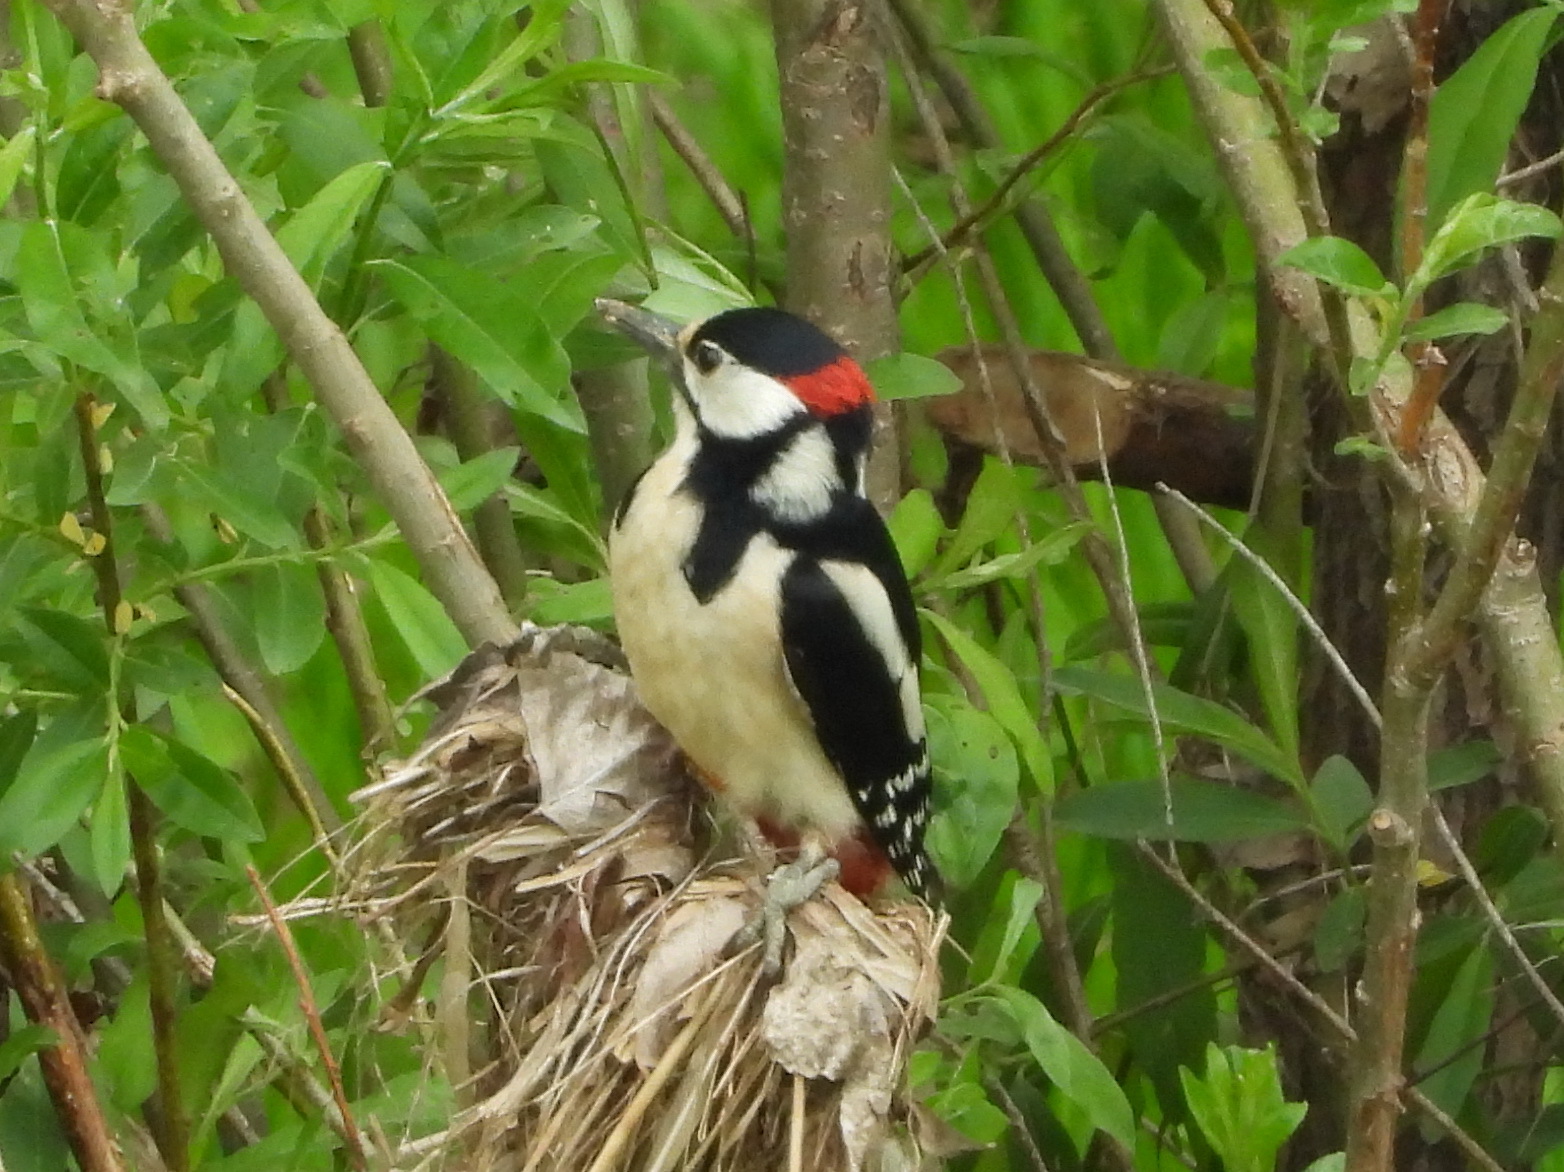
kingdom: Animalia
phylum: Chordata
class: Aves
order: Piciformes
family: Picidae
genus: Dendrocopos
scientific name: Dendrocopos major
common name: Great spotted woodpecker
